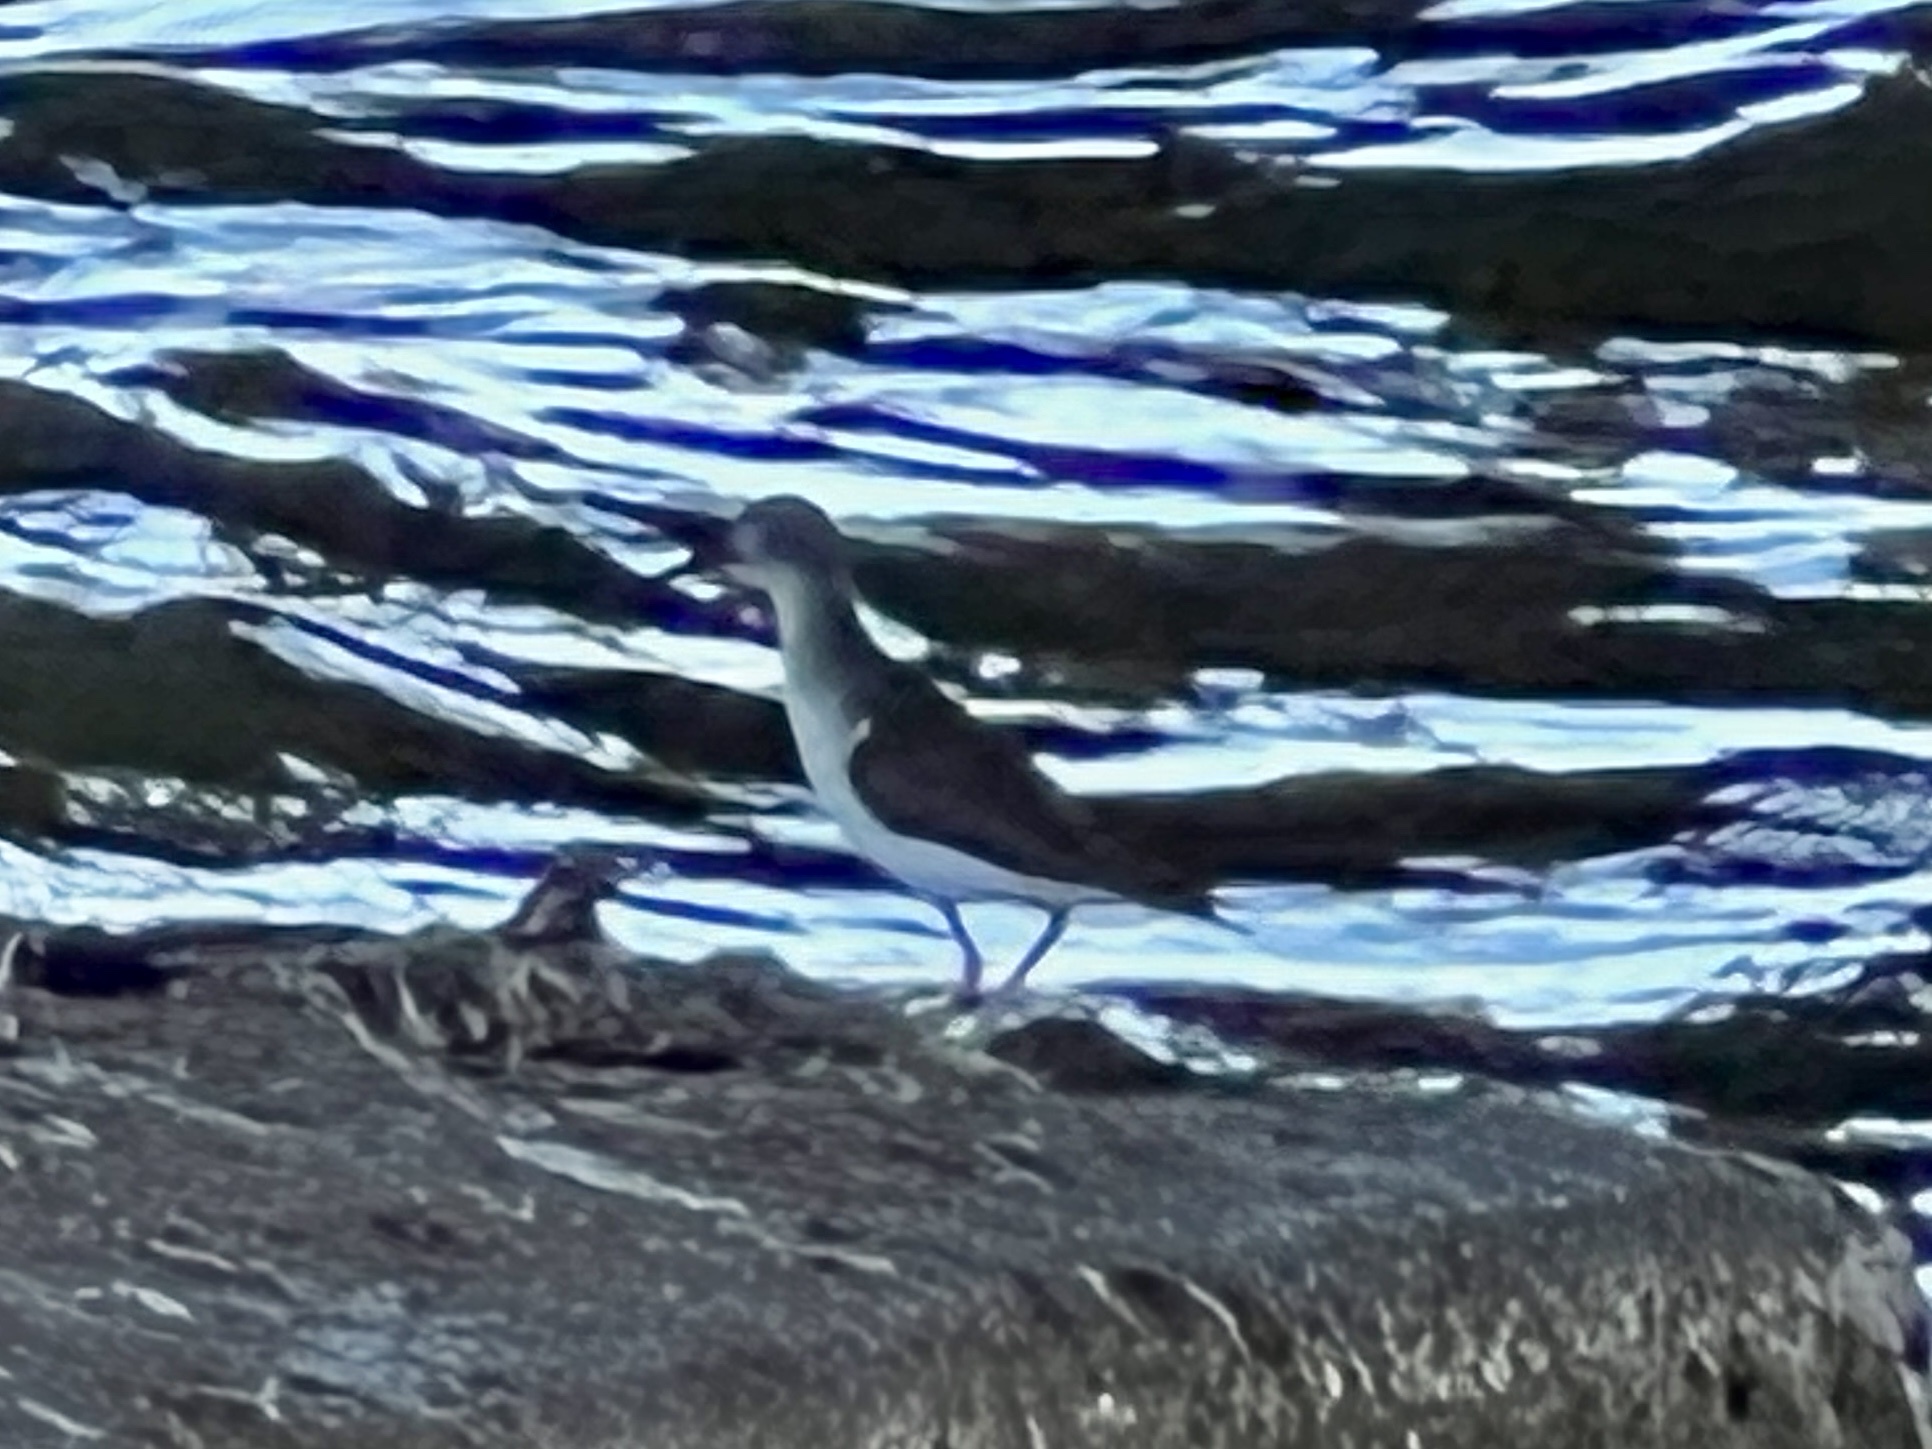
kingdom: Animalia
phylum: Chordata
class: Aves
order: Charadriiformes
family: Scolopacidae
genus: Actitis
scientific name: Actitis macularius
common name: Spotted sandpiper
